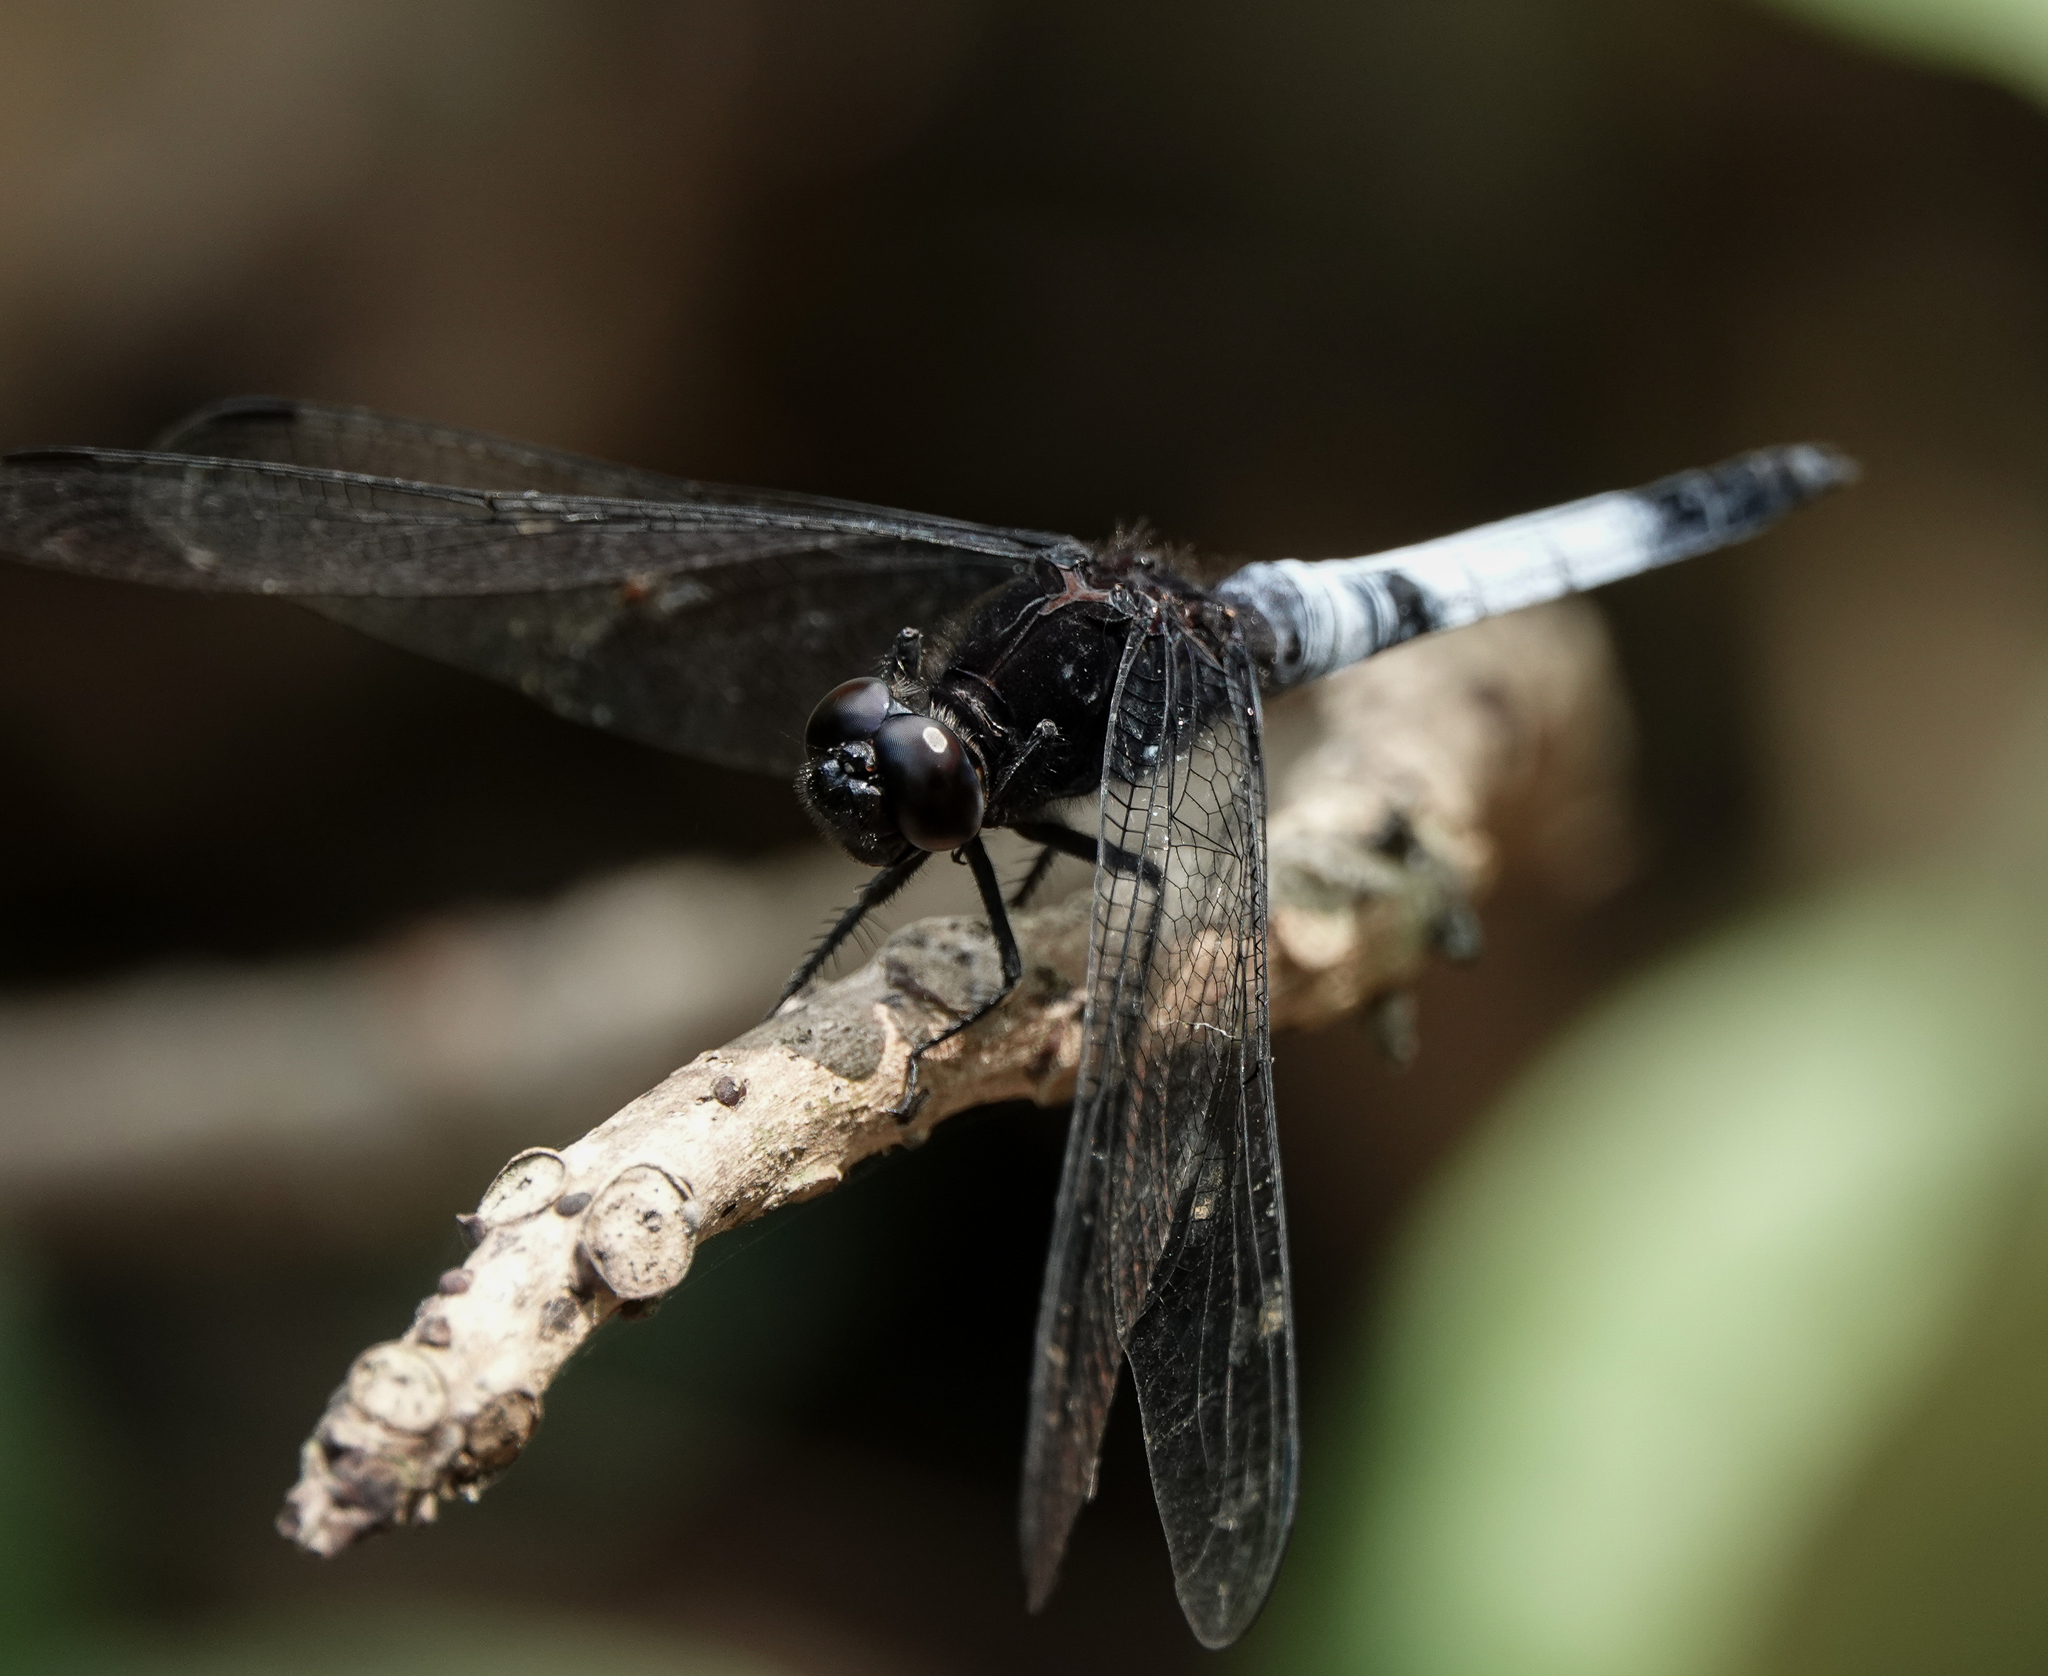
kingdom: Animalia
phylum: Arthropoda
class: Insecta
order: Odonata
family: Libellulidae
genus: Orthetrum
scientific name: Orthetrum triangulare
